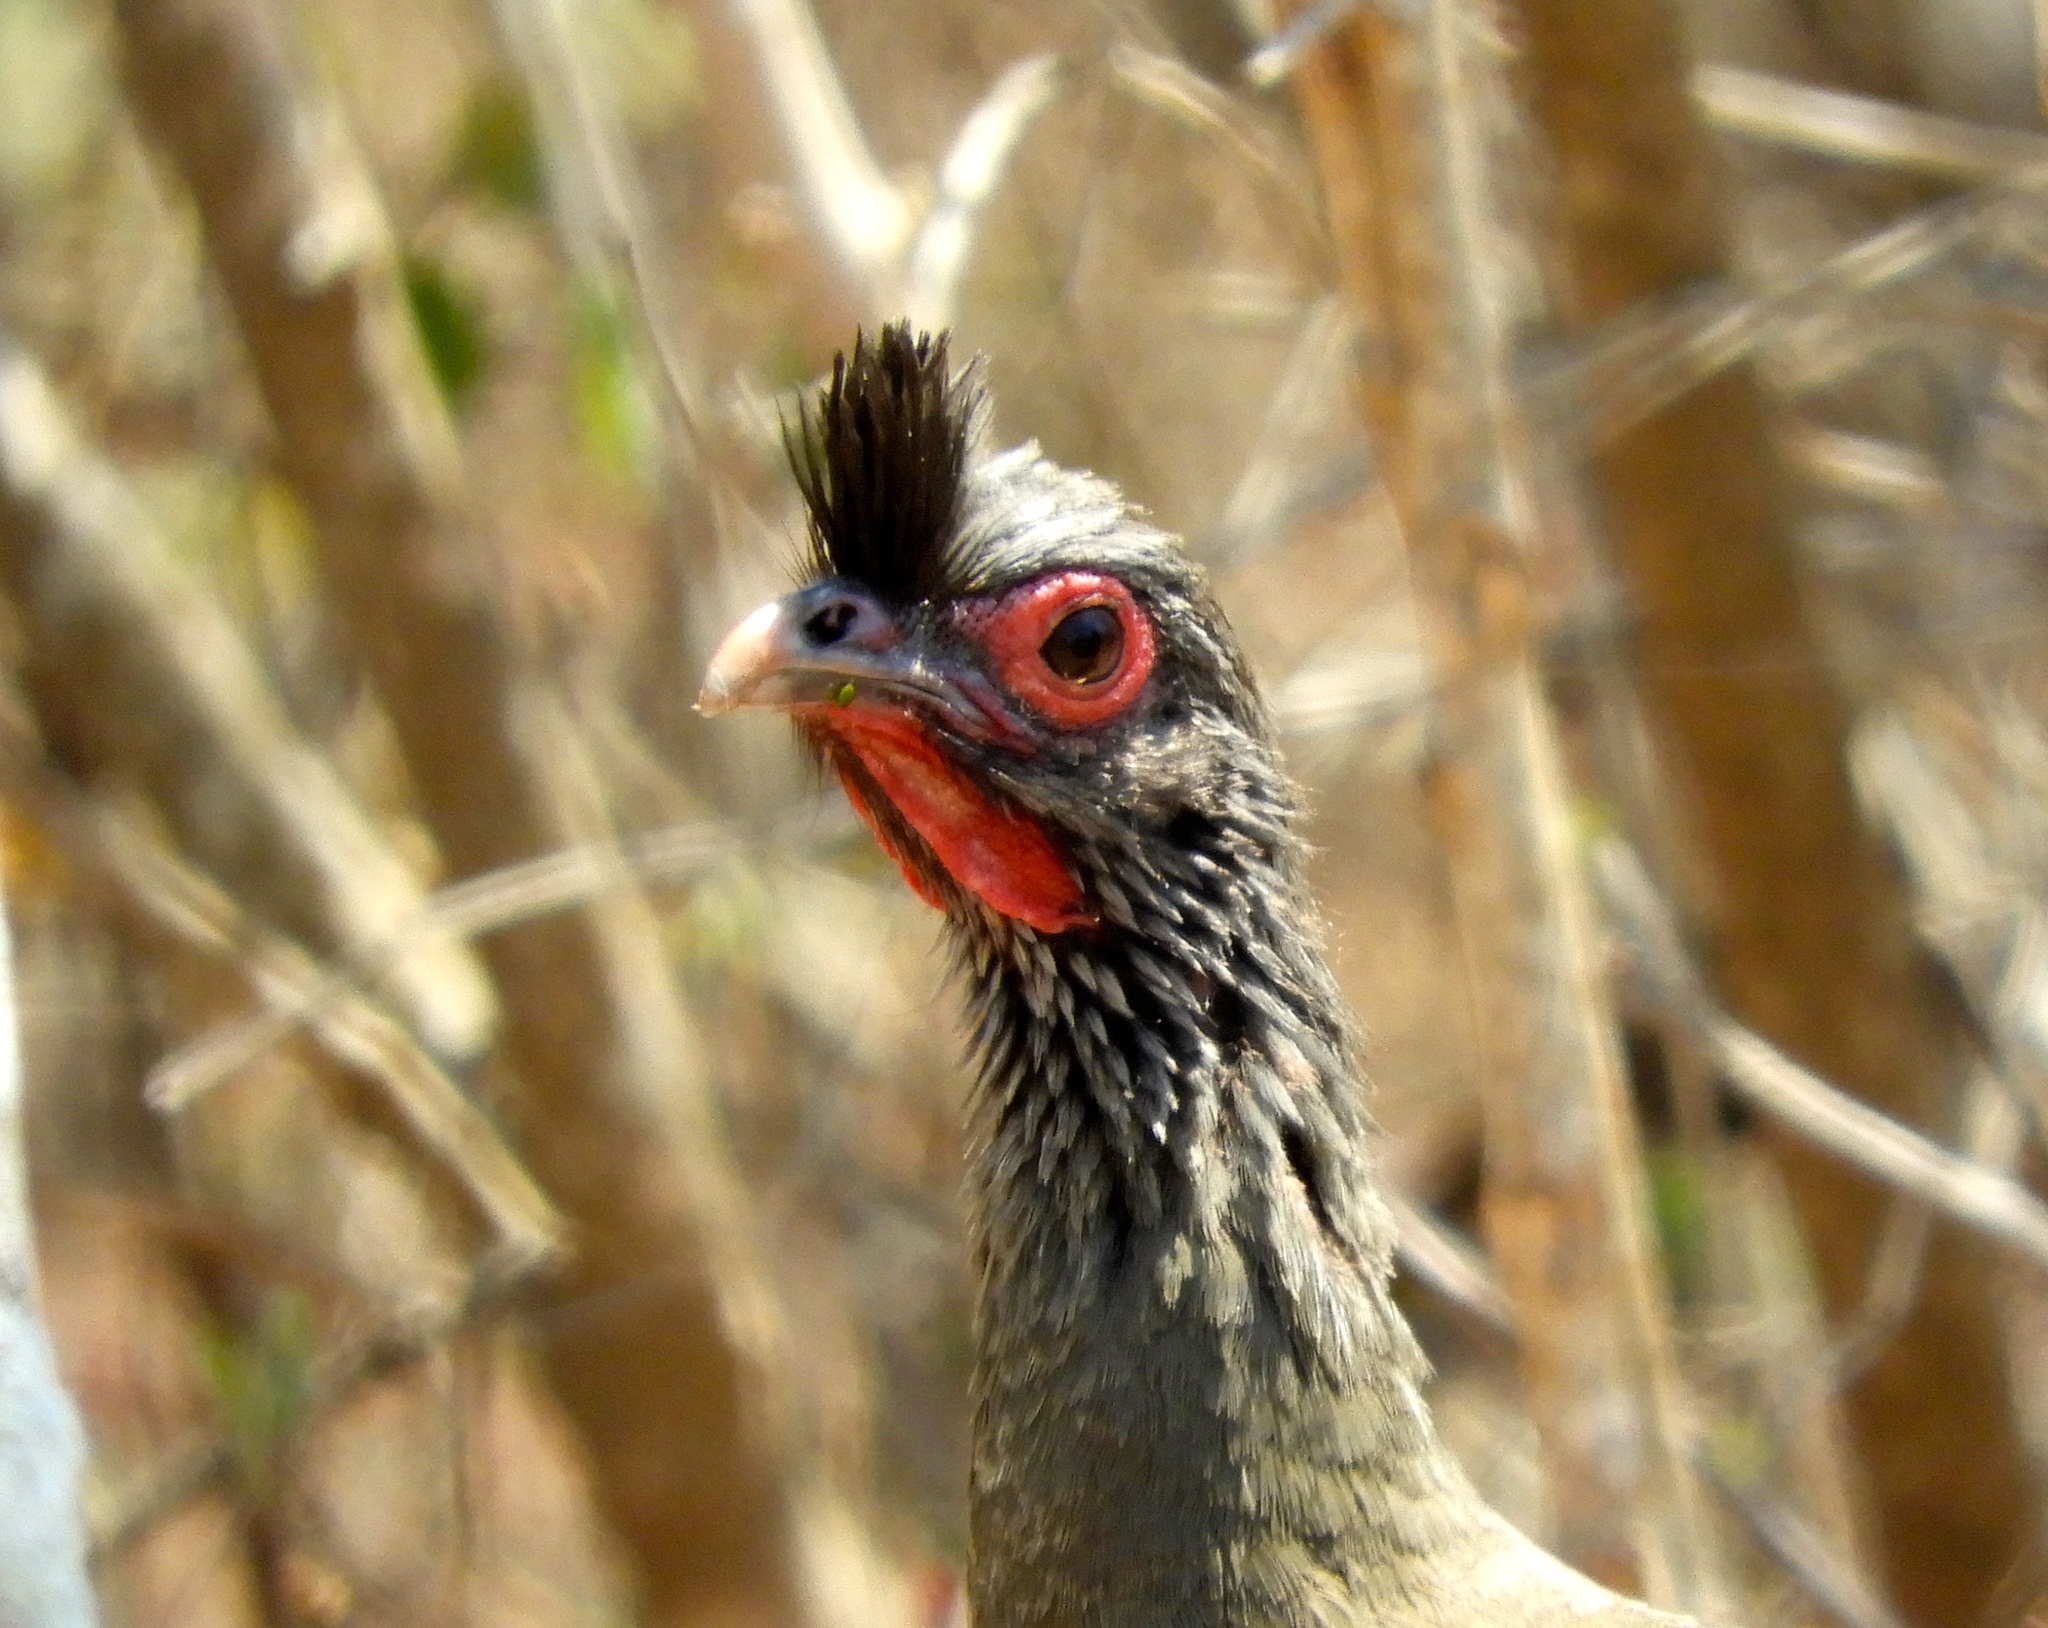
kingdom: Animalia
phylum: Chordata
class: Aves
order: Galliformes
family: Cracidae
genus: Ortalis
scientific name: Ortalis wagleri
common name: Rufous-bellied chachalaca
